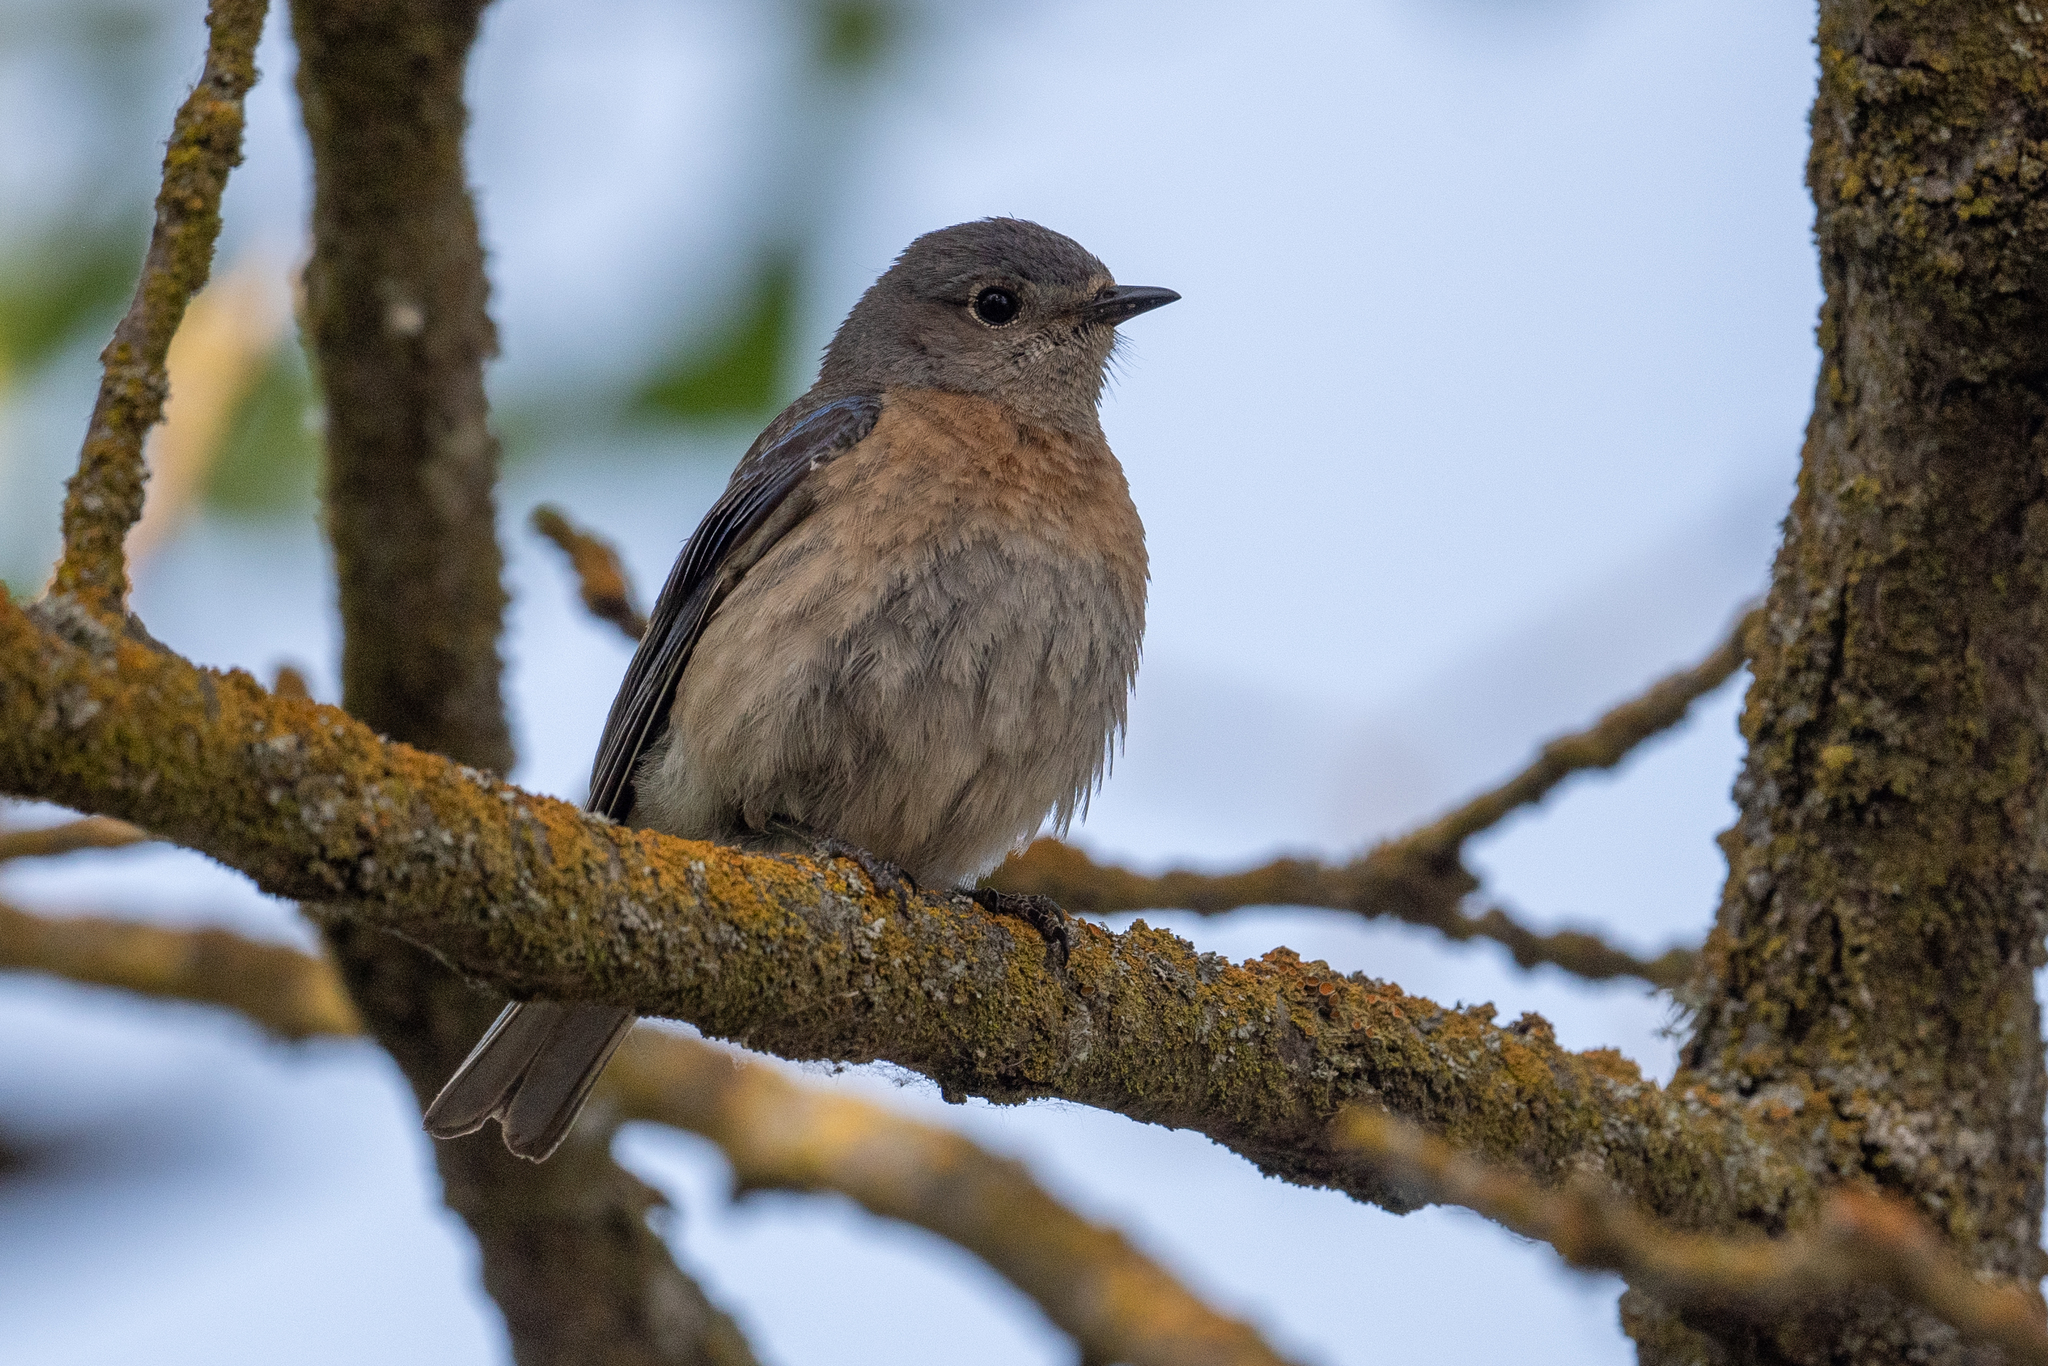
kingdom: Animalia
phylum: Chordata
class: Aves
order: Passeriformes
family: Turdidae
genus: Sialia
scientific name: Sialia mexicana
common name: Western bluebird
